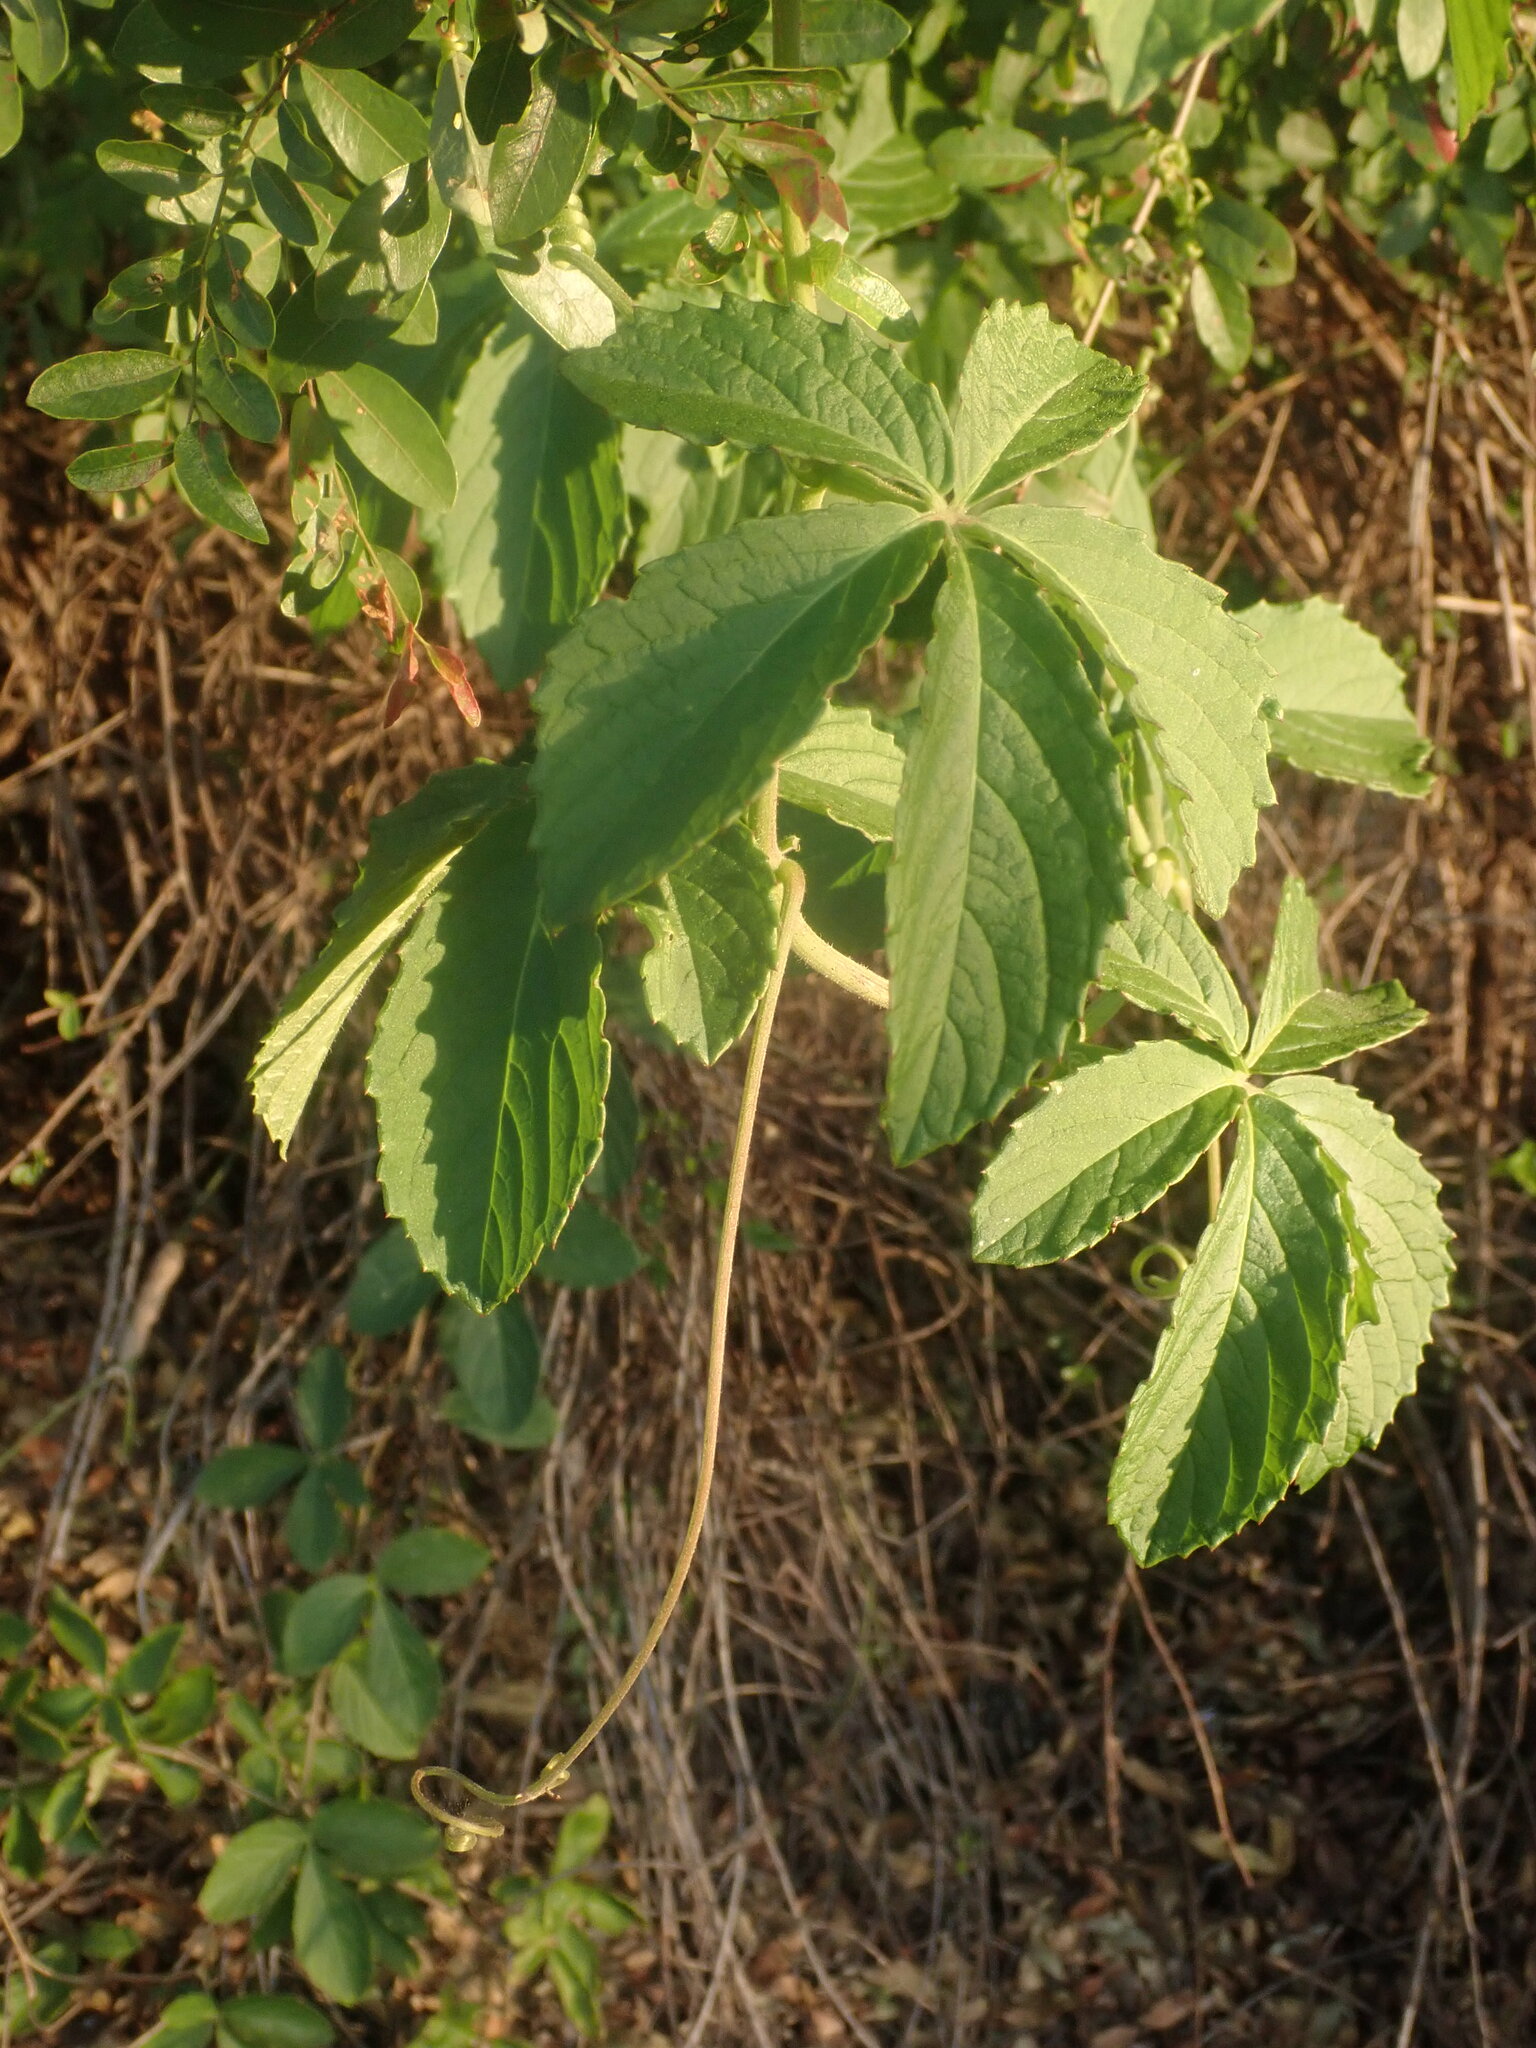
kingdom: Plantae
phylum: Tracheophyta
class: Magnoliopsida
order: Vitales
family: Vitaceae
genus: Cyphostemma
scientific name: Cyphostemma cirrhosum
